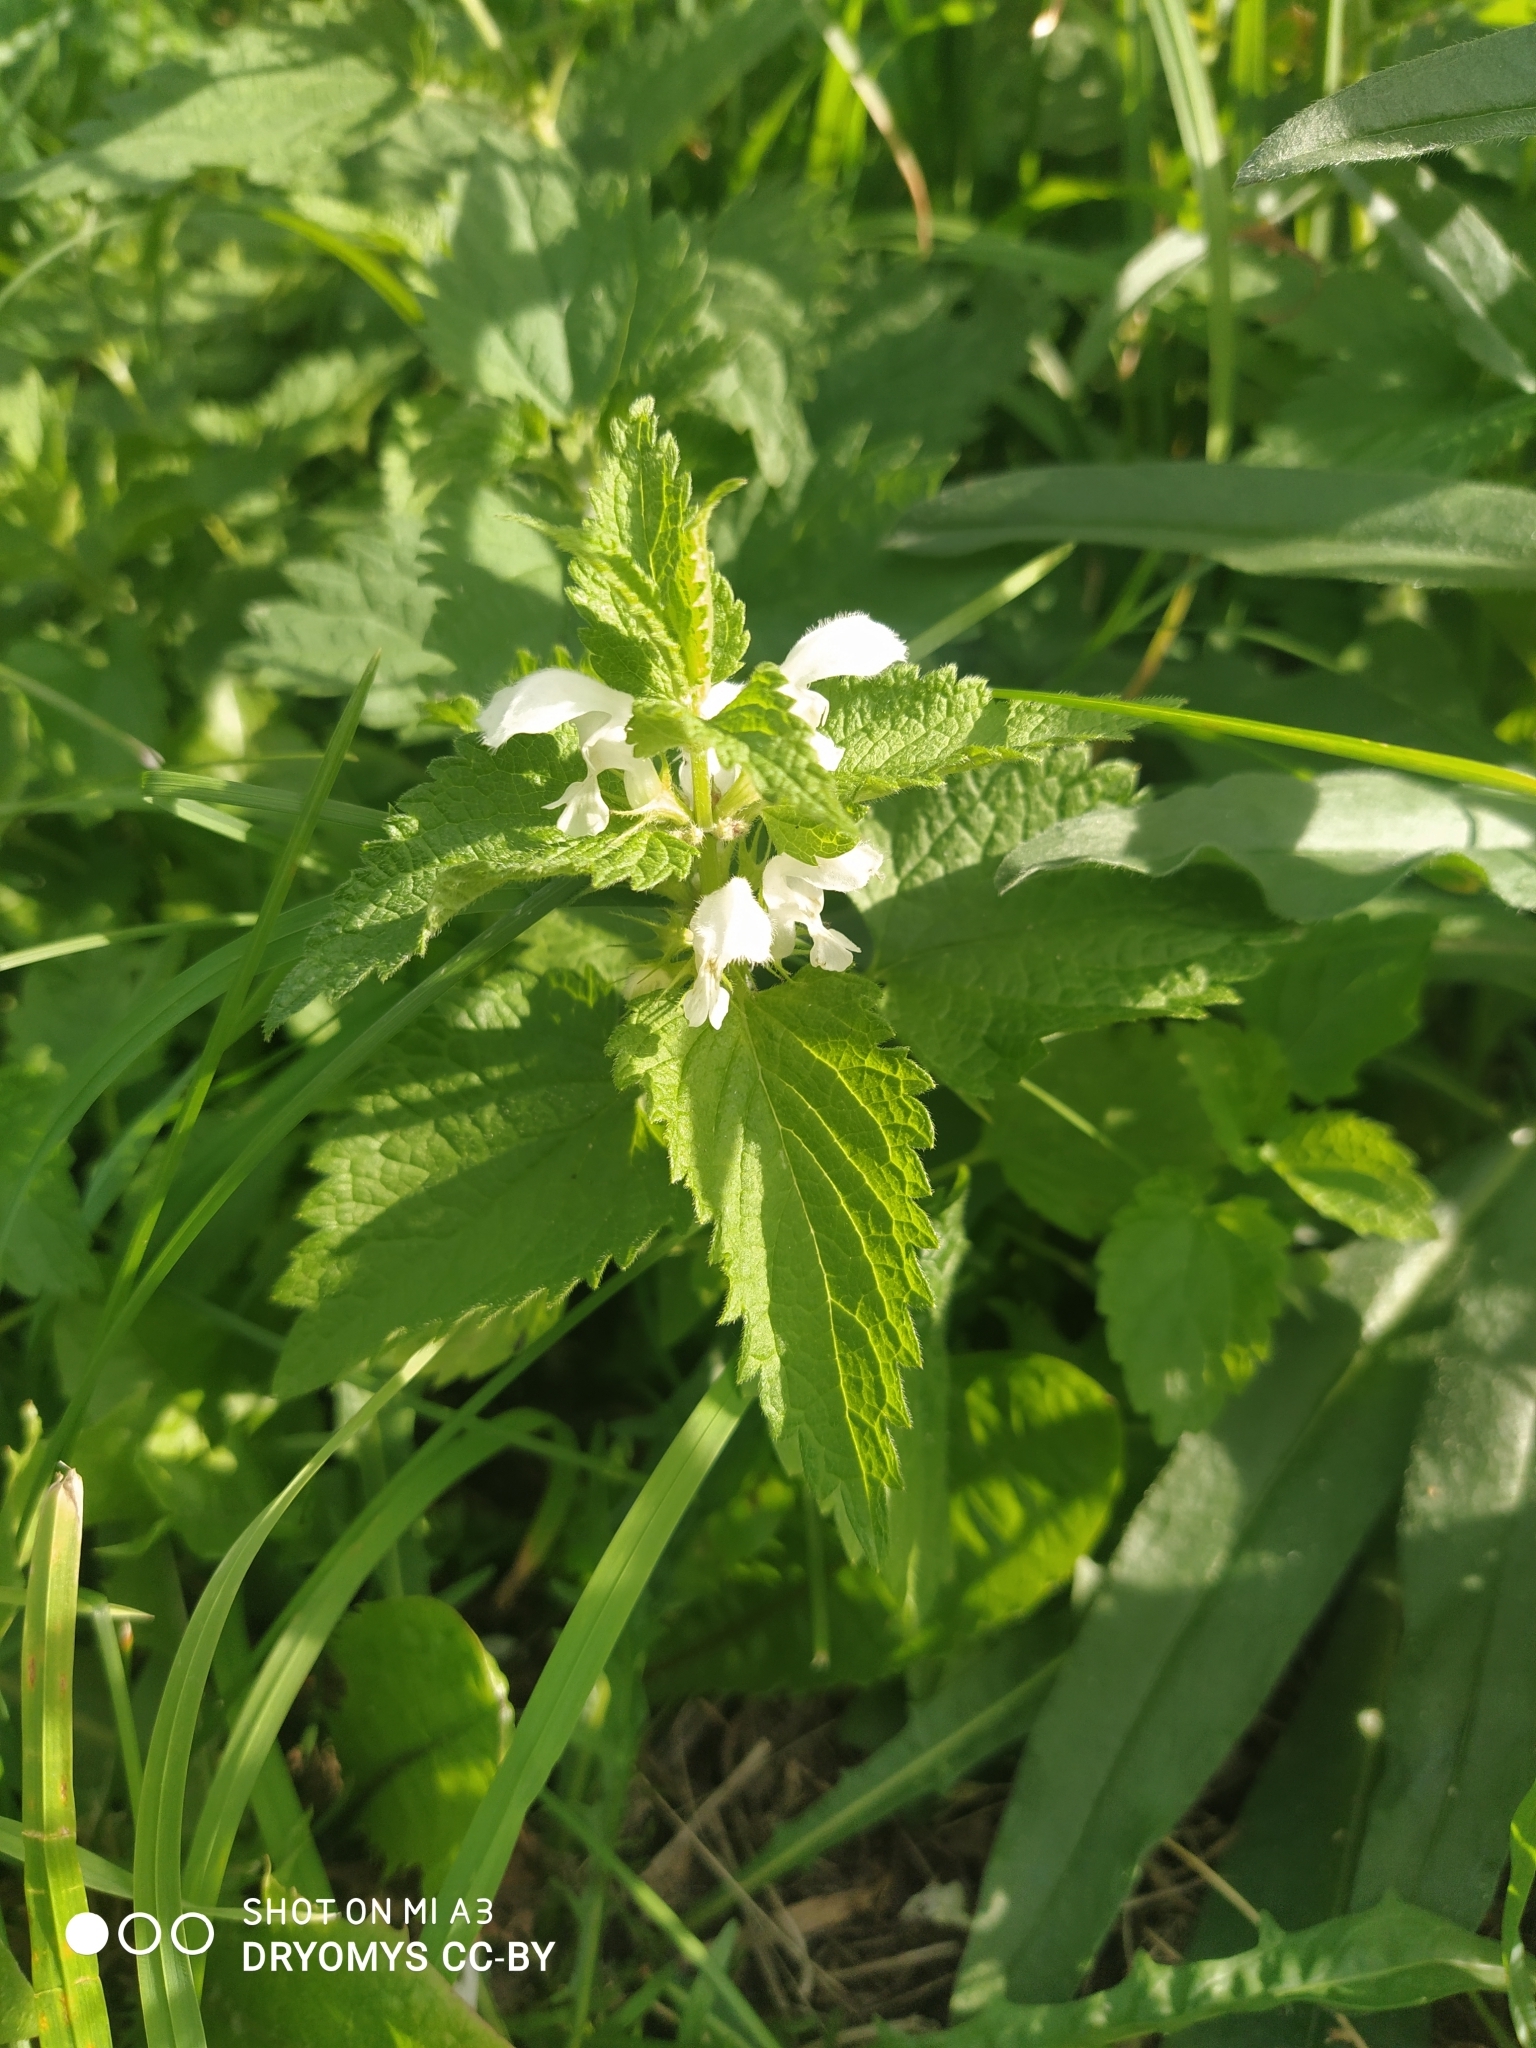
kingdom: Plantae
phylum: Tracheophyta
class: Magnoliopsida
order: Lamiales
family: Lamiaceae
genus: Lamium
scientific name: Lamium album
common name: White dead-nettle
